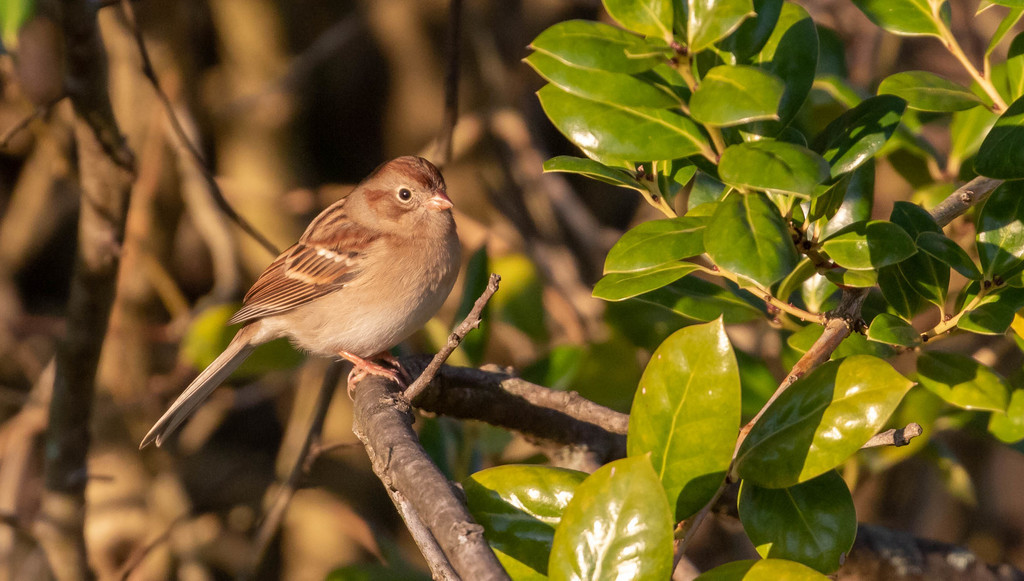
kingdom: Animalia
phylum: Chordata
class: Aves
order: Passeriformes
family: Passerellidae
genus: Spizella
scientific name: Spizella pusilla
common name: Field sparrow
